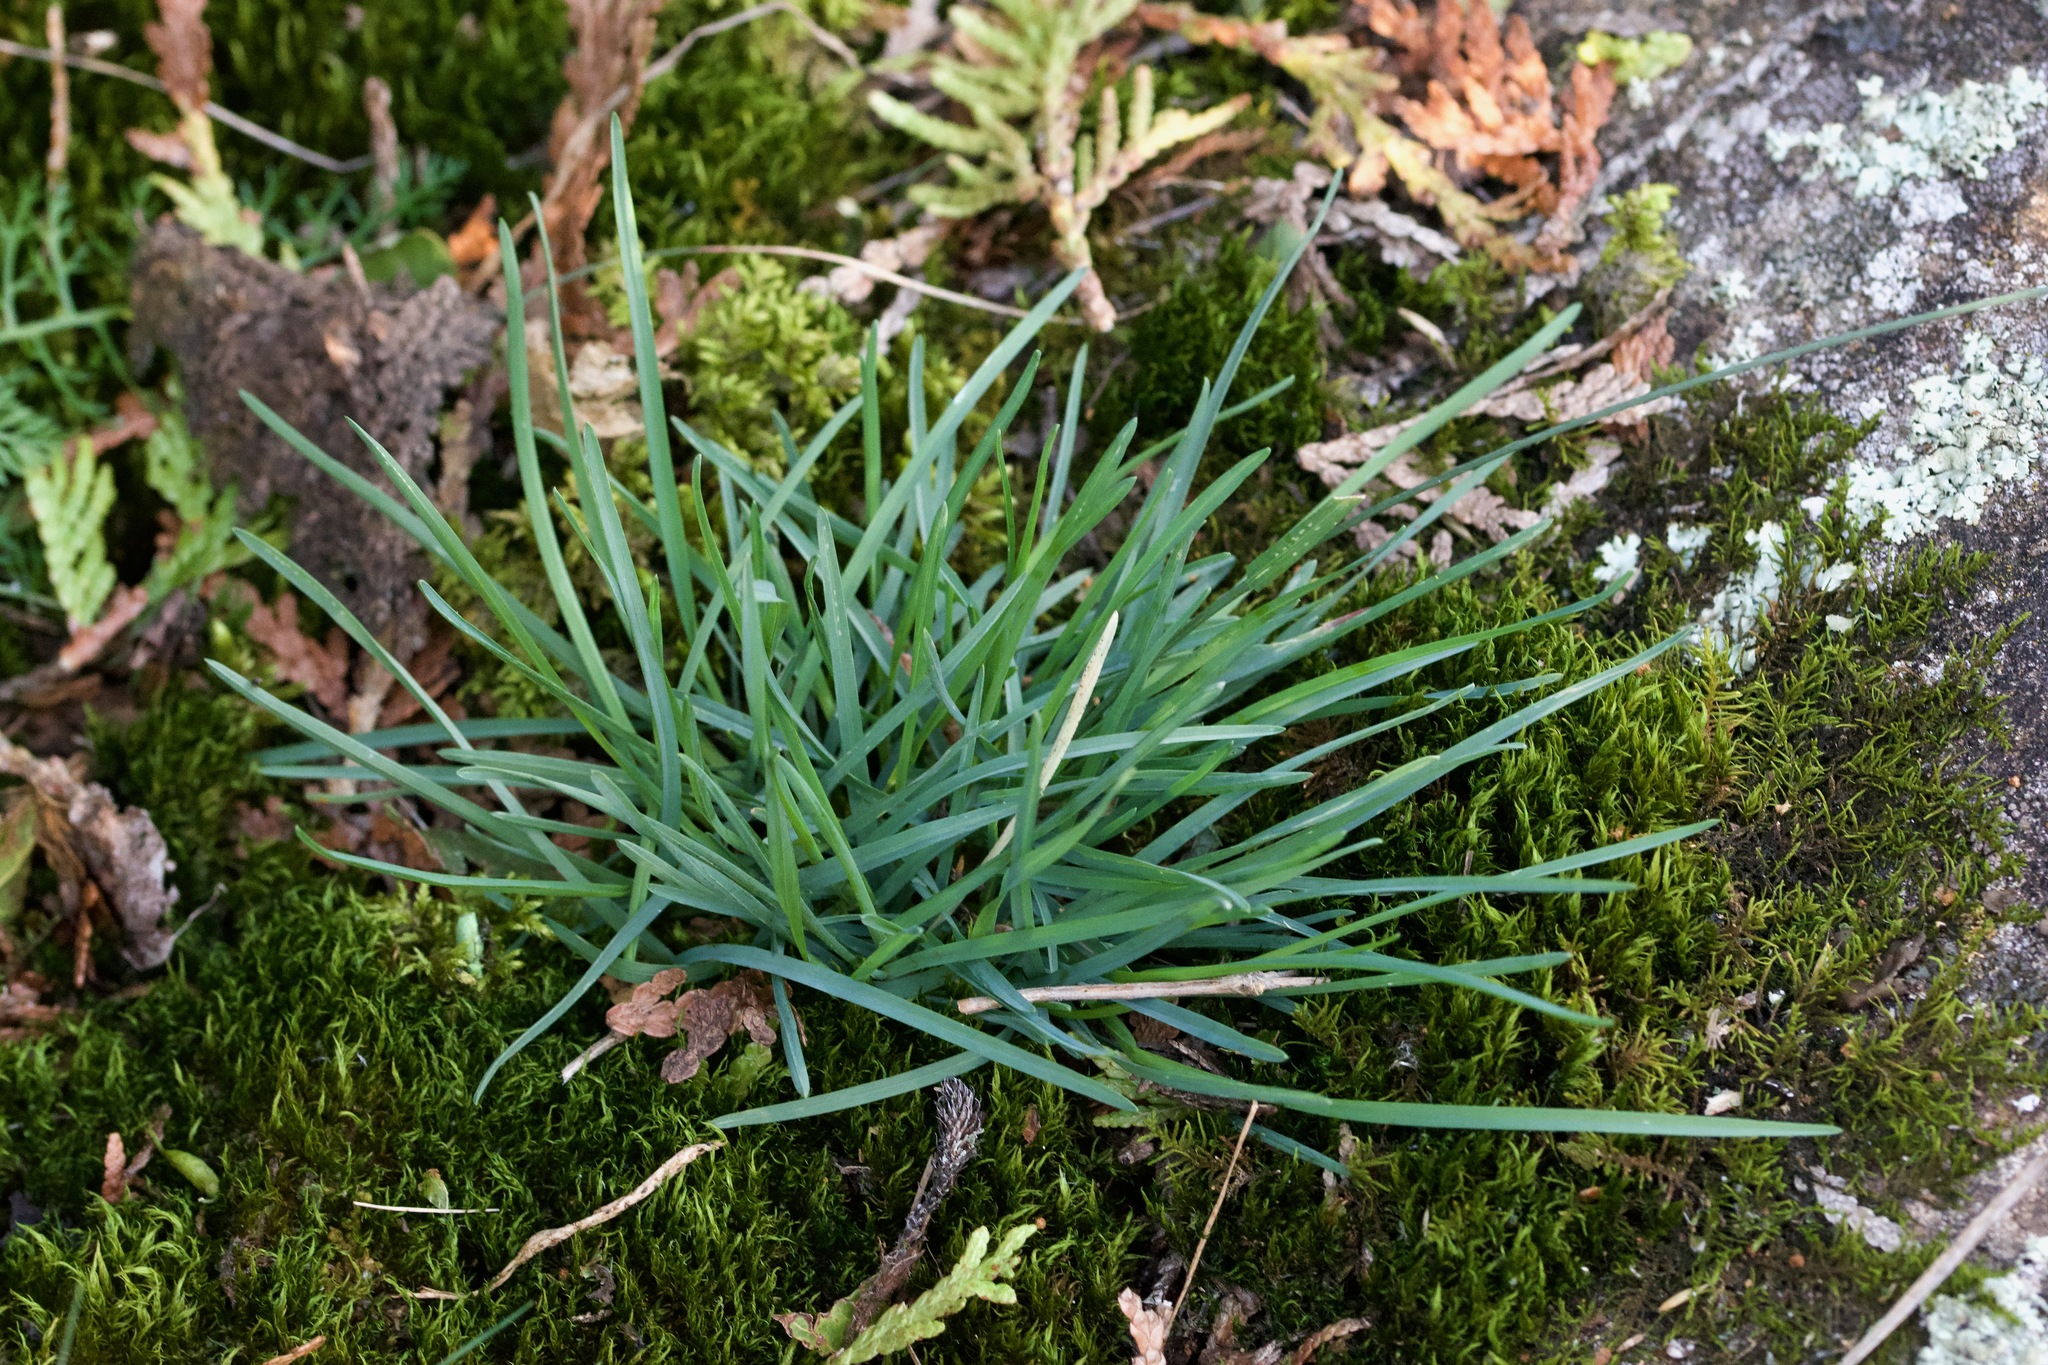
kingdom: Plantae
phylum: Tracheophyta
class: Liliopsida
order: Poales
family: Poaceae
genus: Poa
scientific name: Poa compressa
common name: Canada bluegrass
